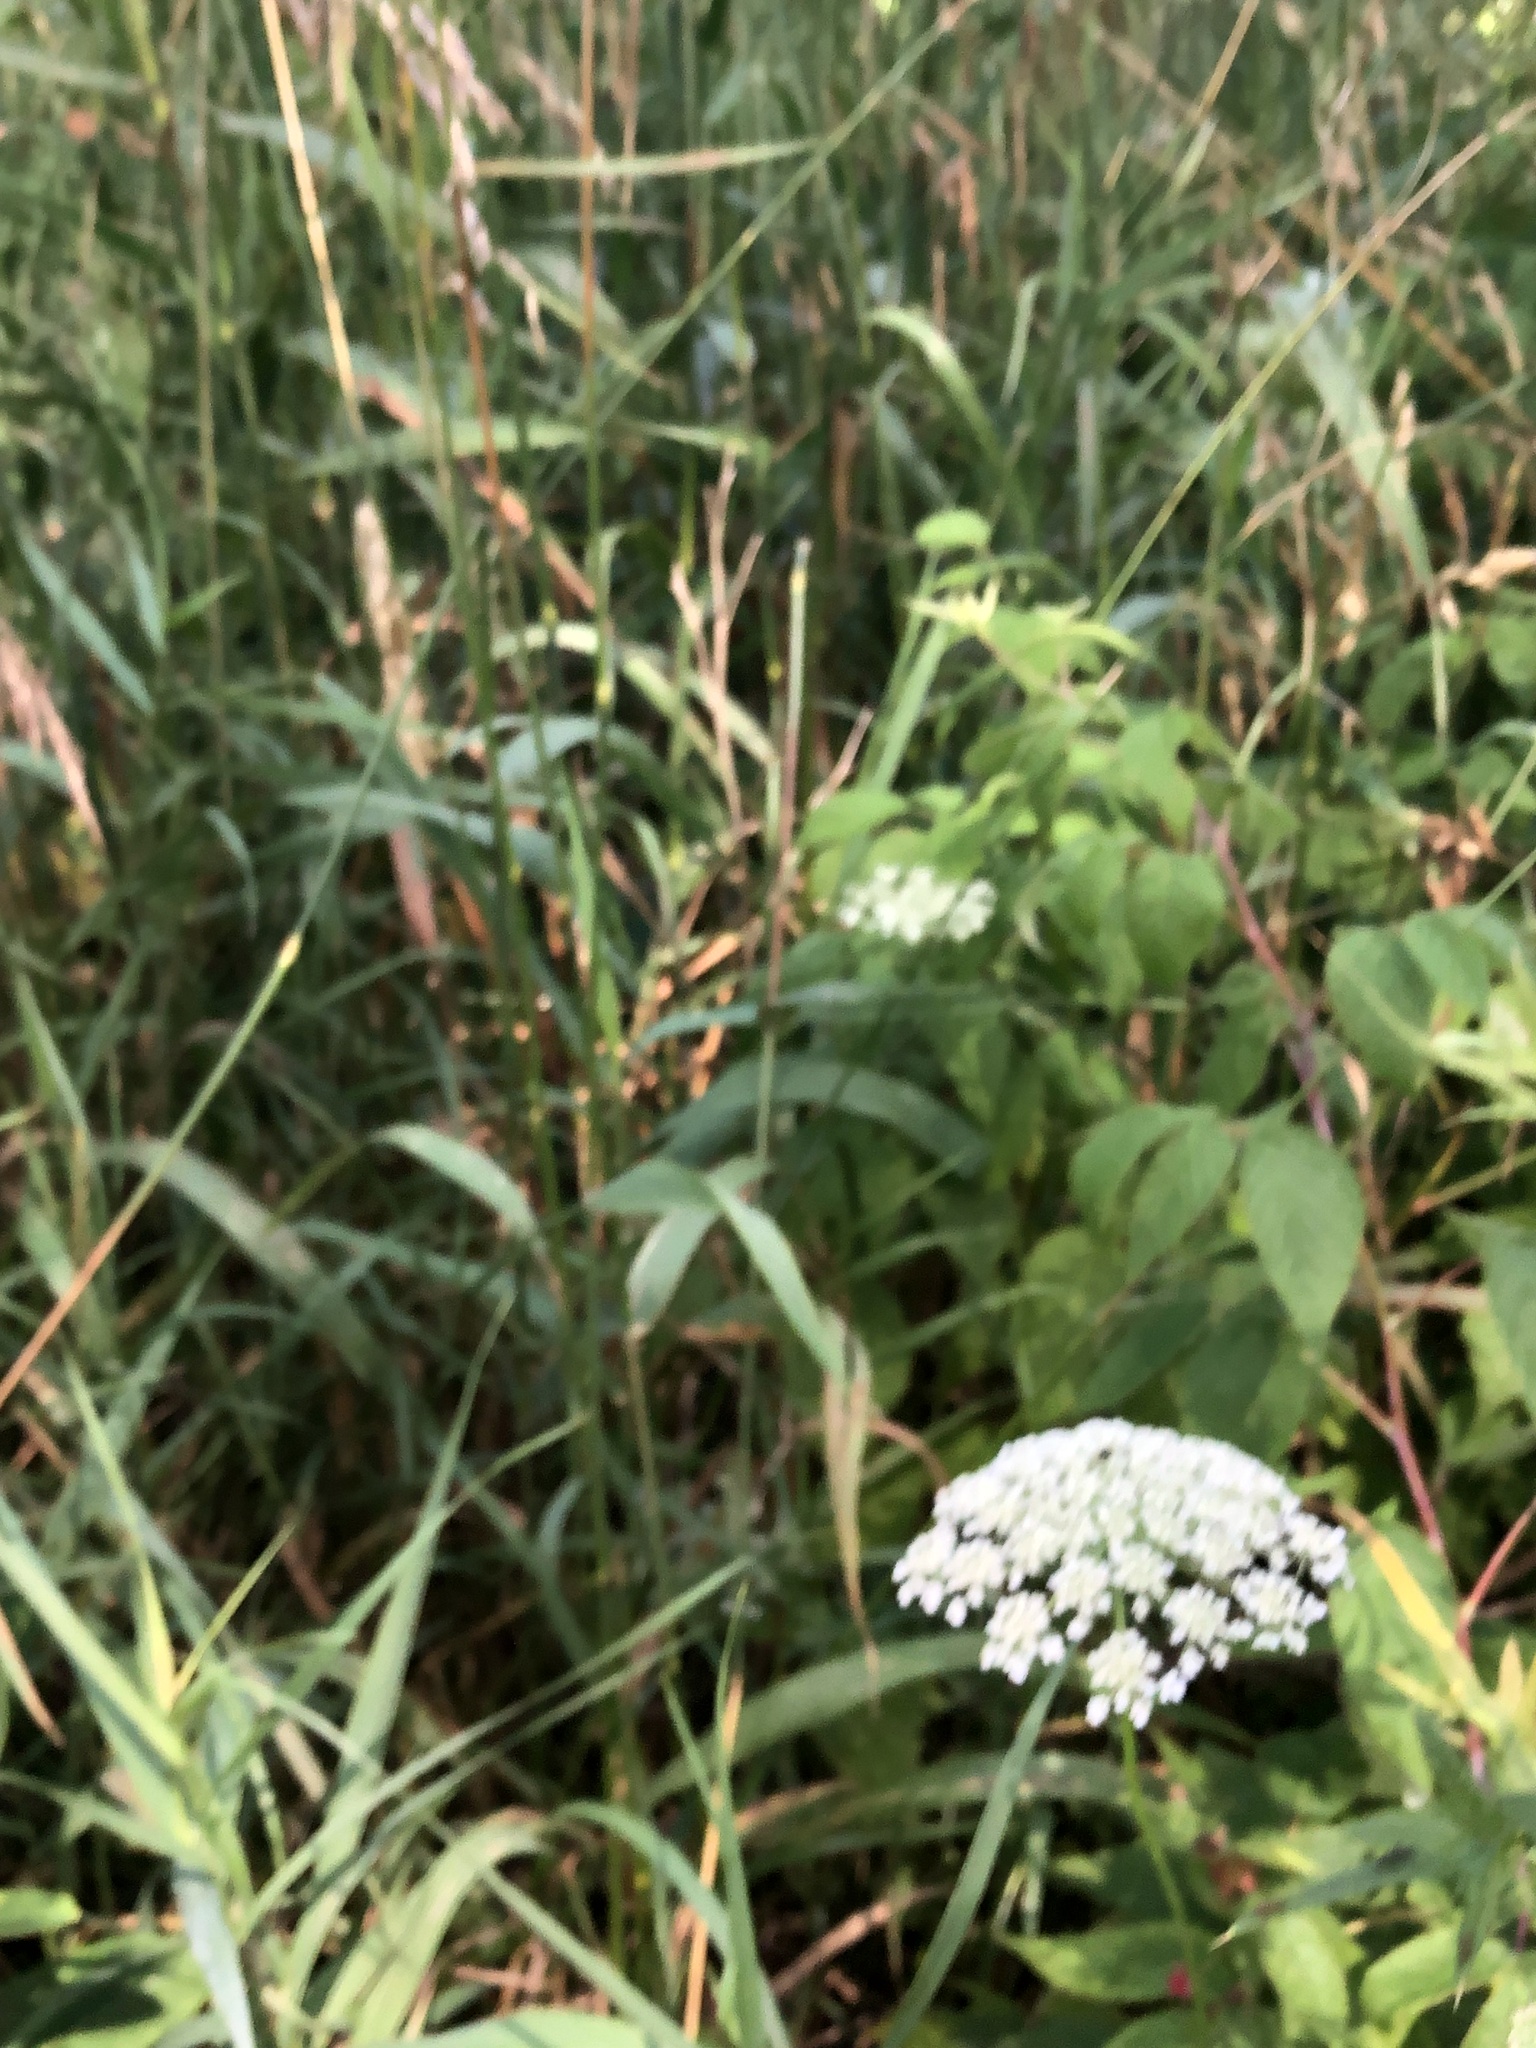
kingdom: Plantae
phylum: Tracheophyta
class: Magnoliopsida
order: Apiales
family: Apiaceae
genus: Daucus
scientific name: Daucus carota
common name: Wild carrot
